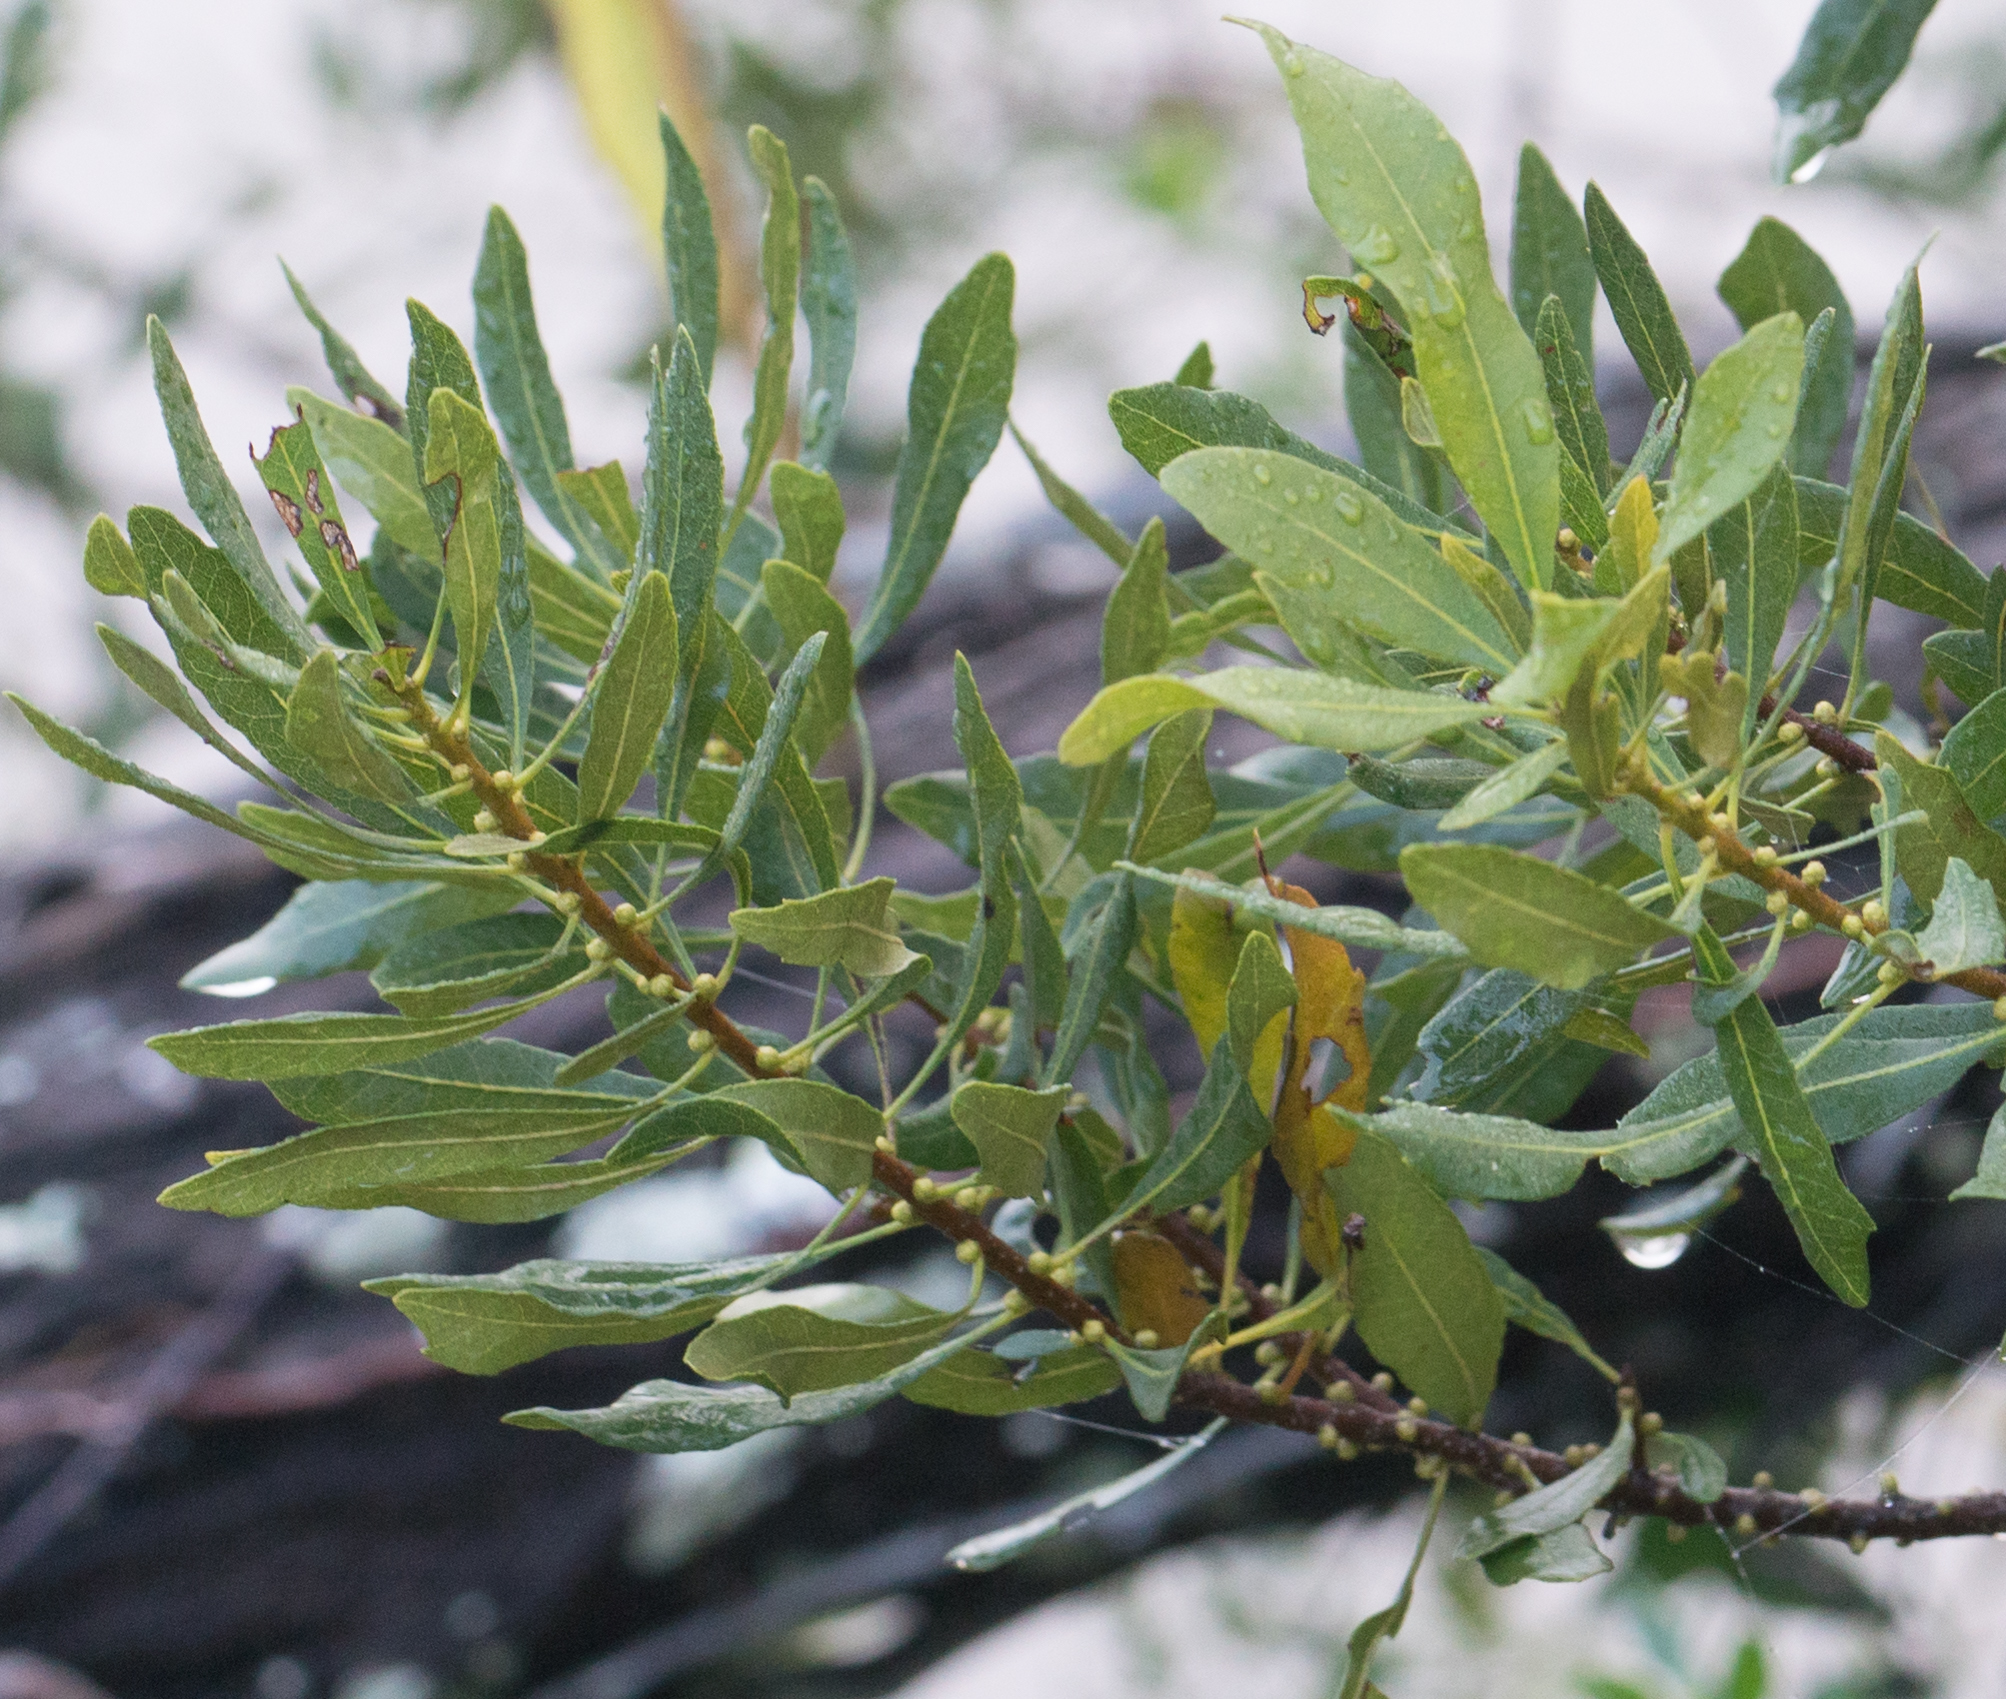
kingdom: Plantae
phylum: Tracheophyta
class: Magnoliopsida
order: Fagales
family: Myricaceae
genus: Morella
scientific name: Morella cerifera
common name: Wax myrtle
